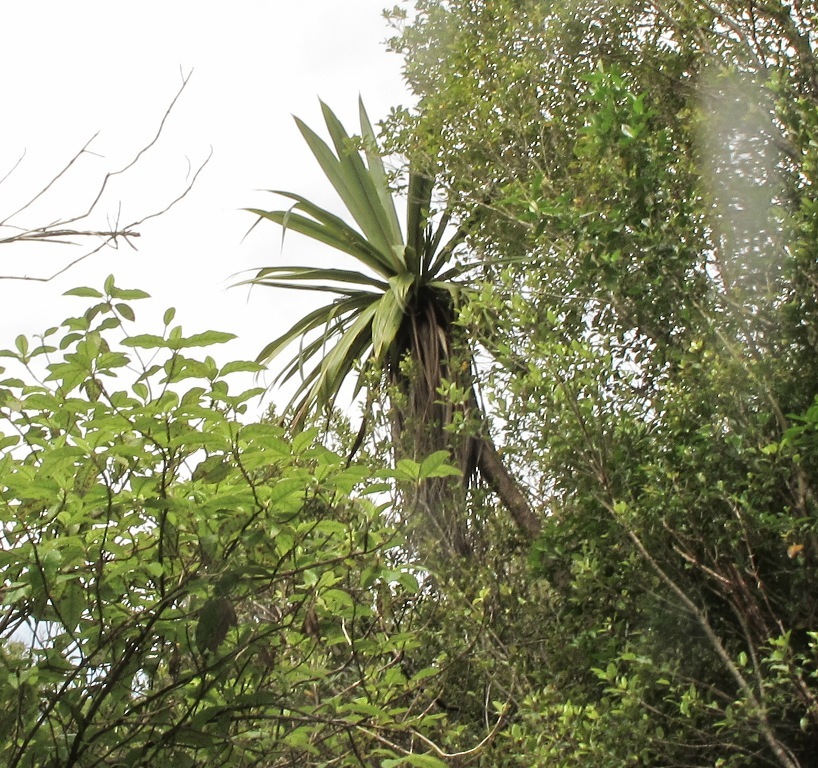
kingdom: Plantae
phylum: Tracheophyta
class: Liliopsida
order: Asparagales
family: Asparagaceae
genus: Cordyline
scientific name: Cordyline indivisa
